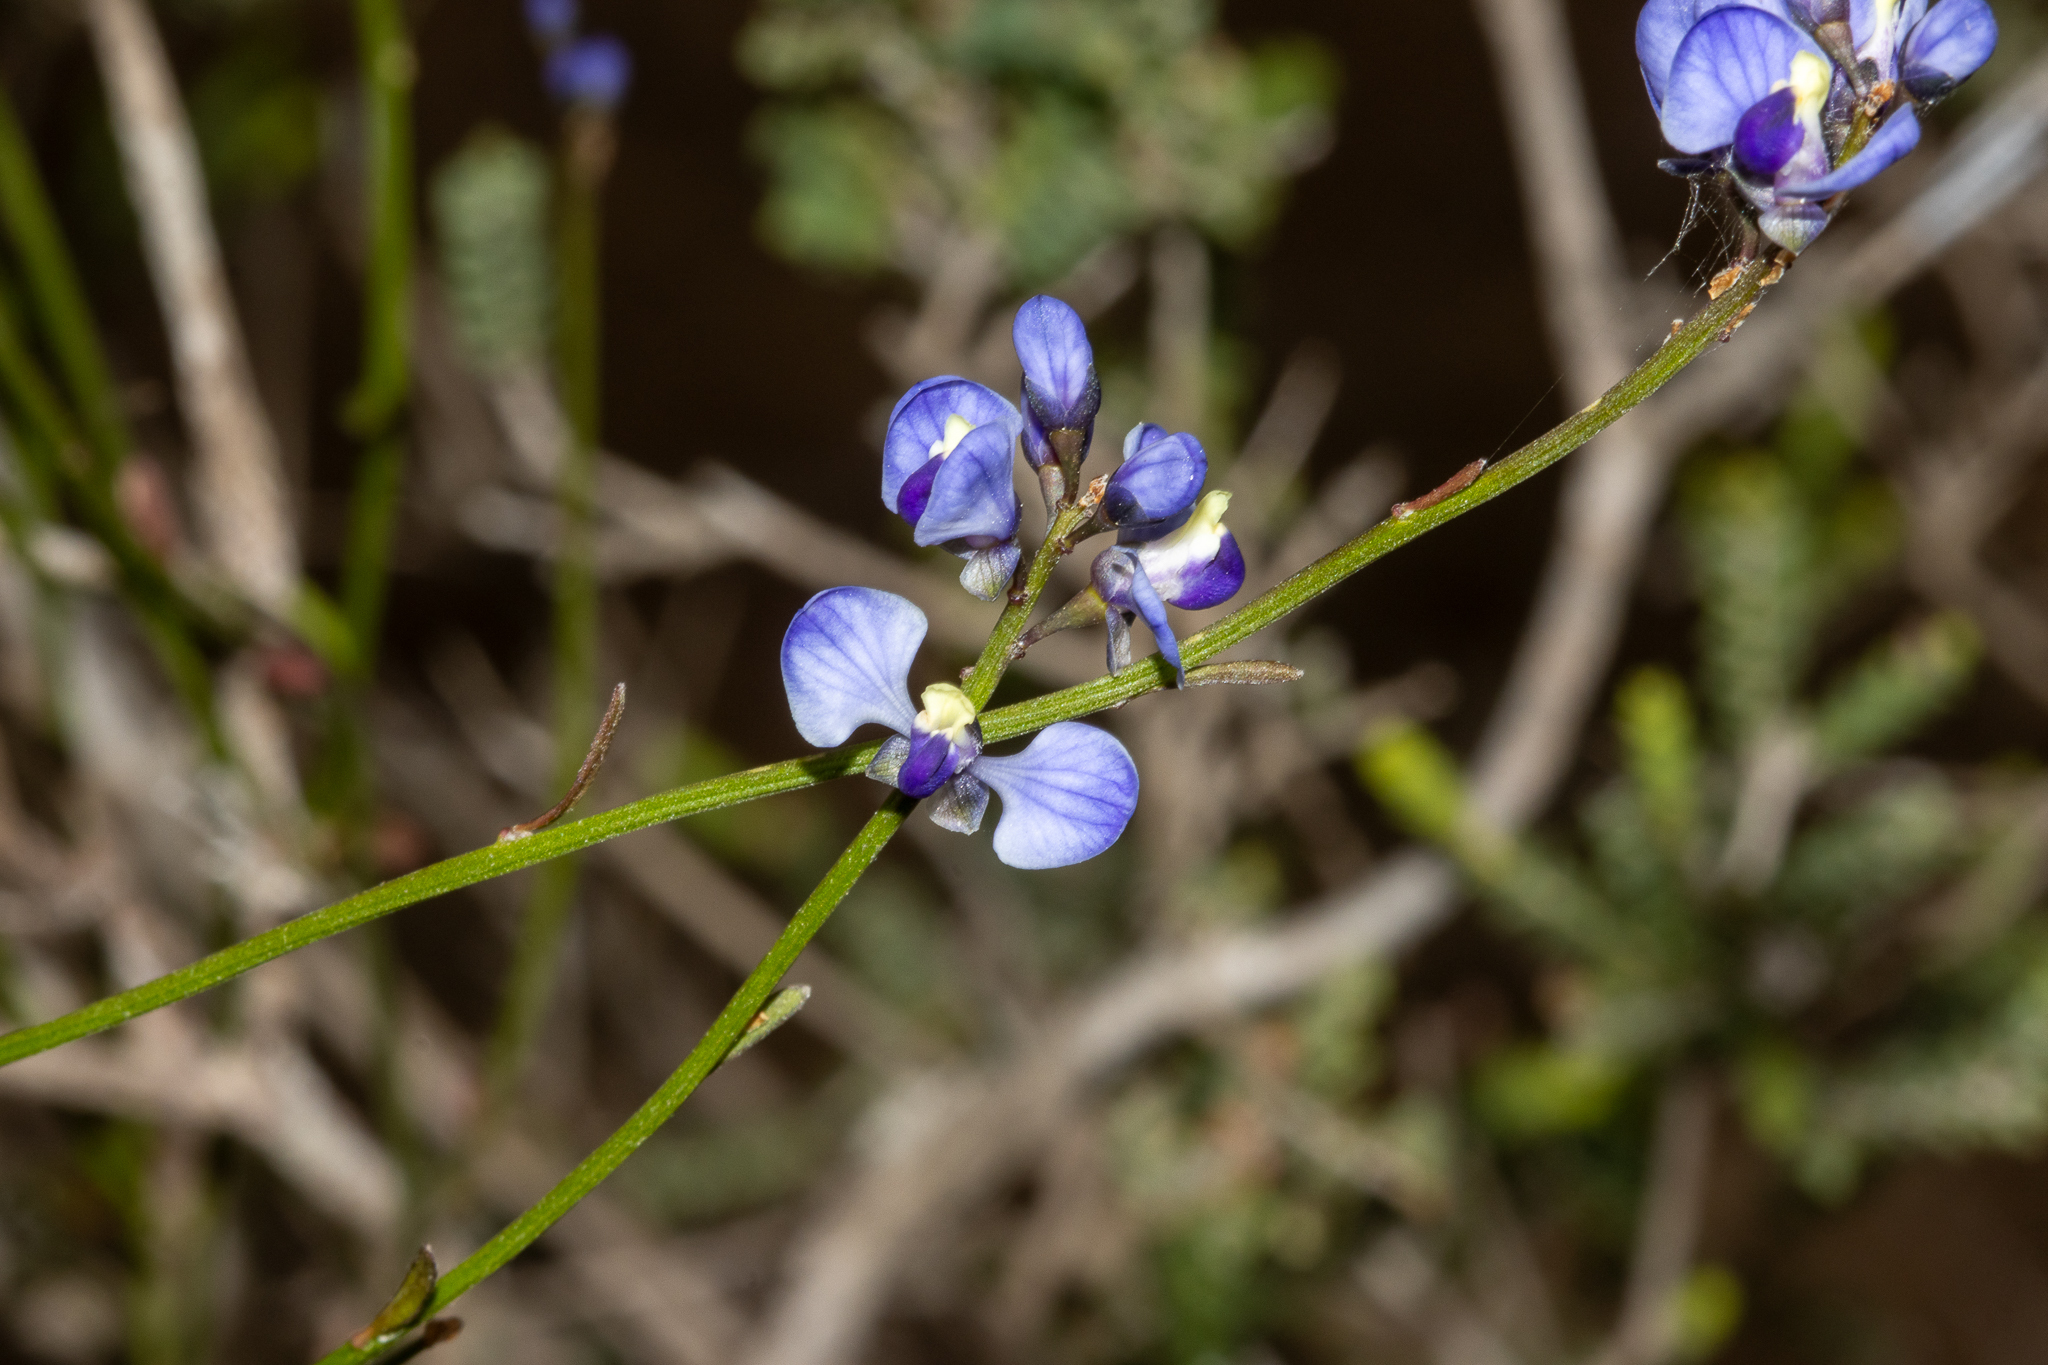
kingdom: Plantae
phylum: Tracheophyta
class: Magnoliopsida
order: Fabales
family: Polygalaceae
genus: Comesperma
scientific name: Comesperma volubile
